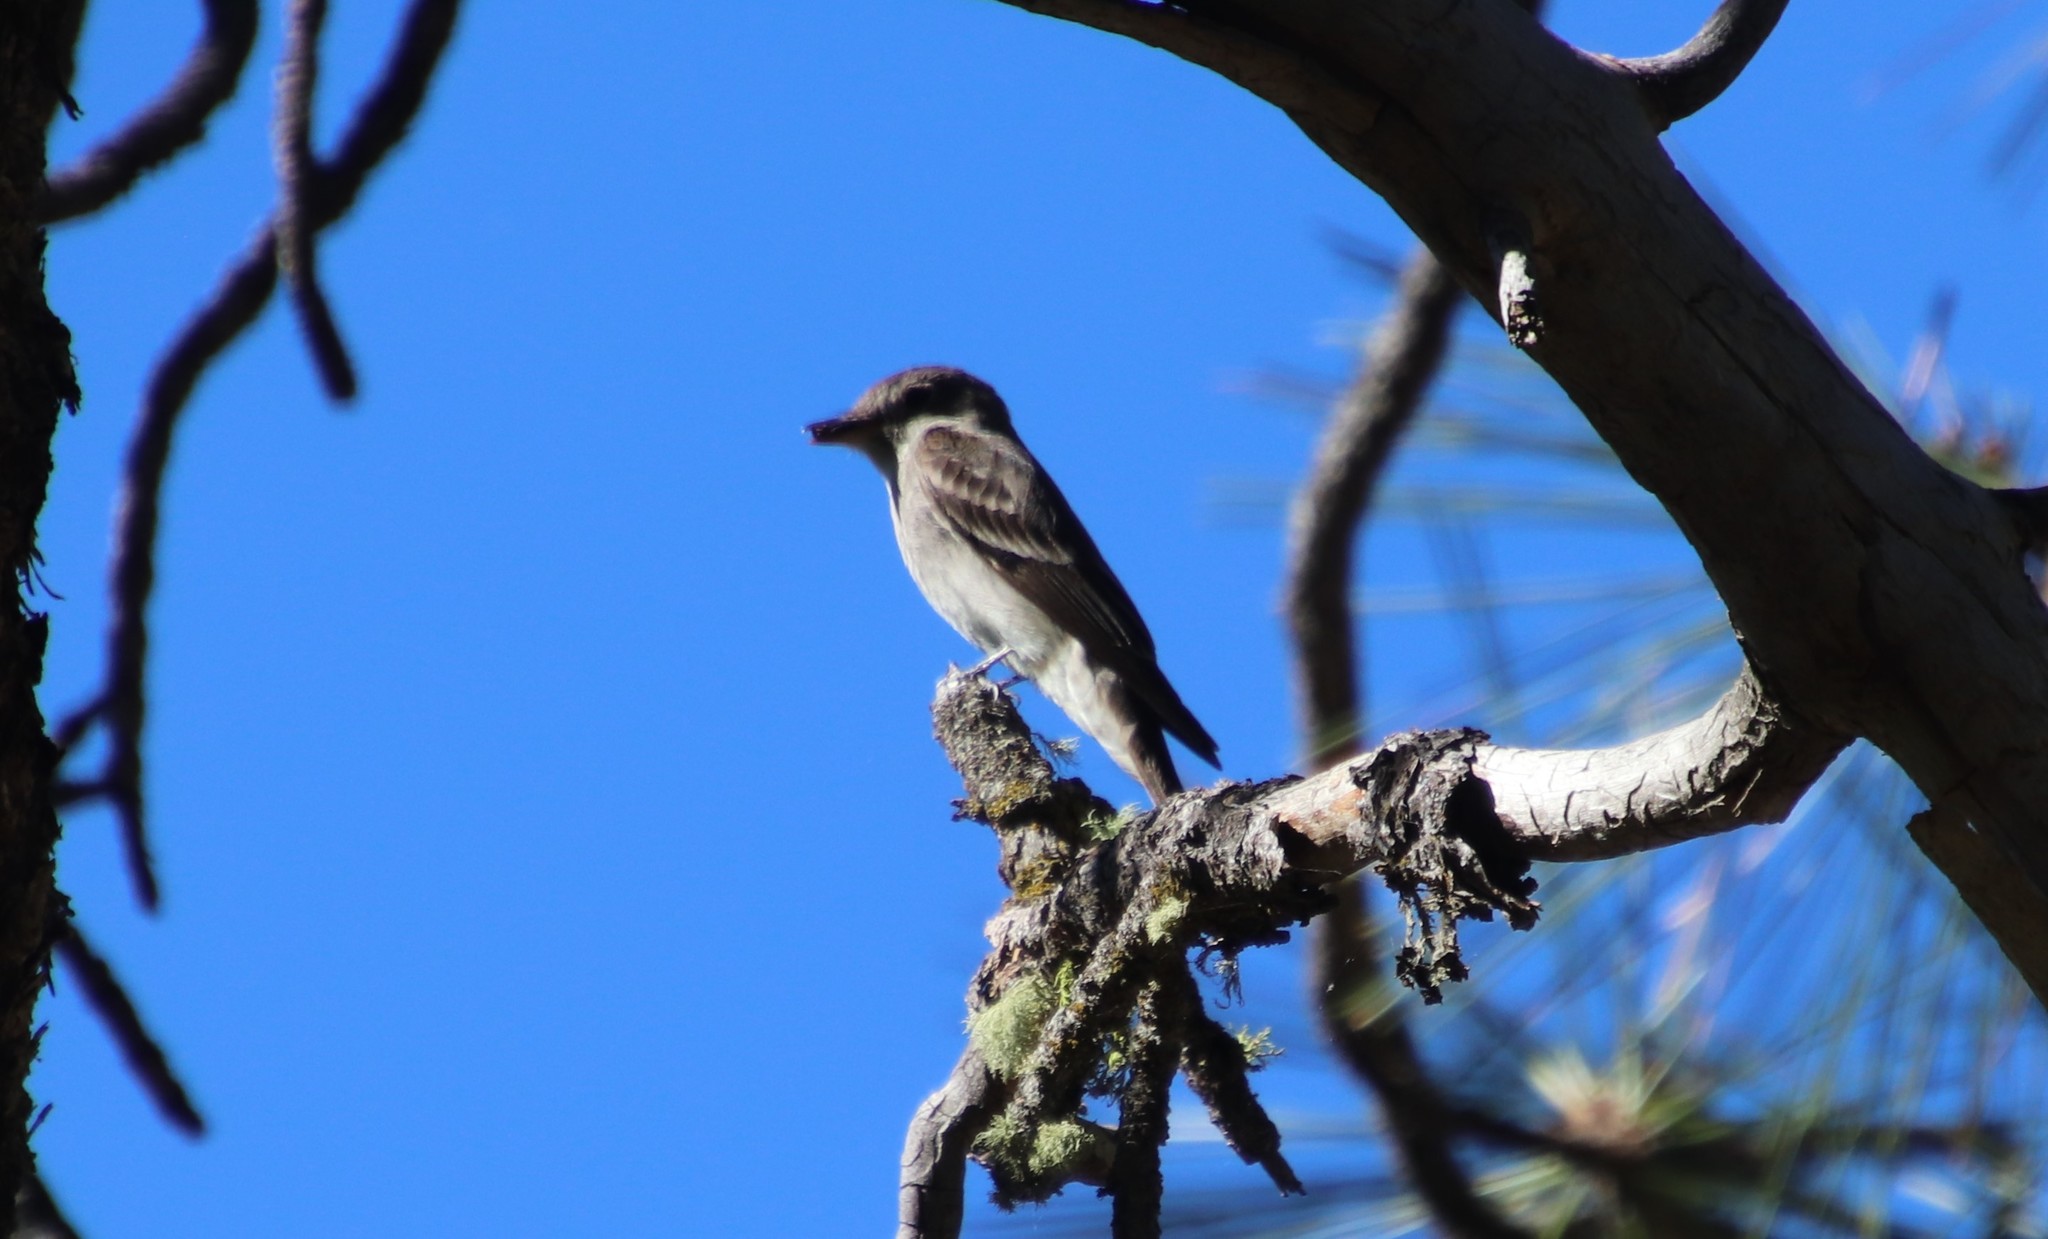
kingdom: Animalia
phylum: Chordata
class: Aves
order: Passeriformes
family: Tyrannidae
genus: Contopus
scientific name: Contopus sordidulus
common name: Western wood-pewee
